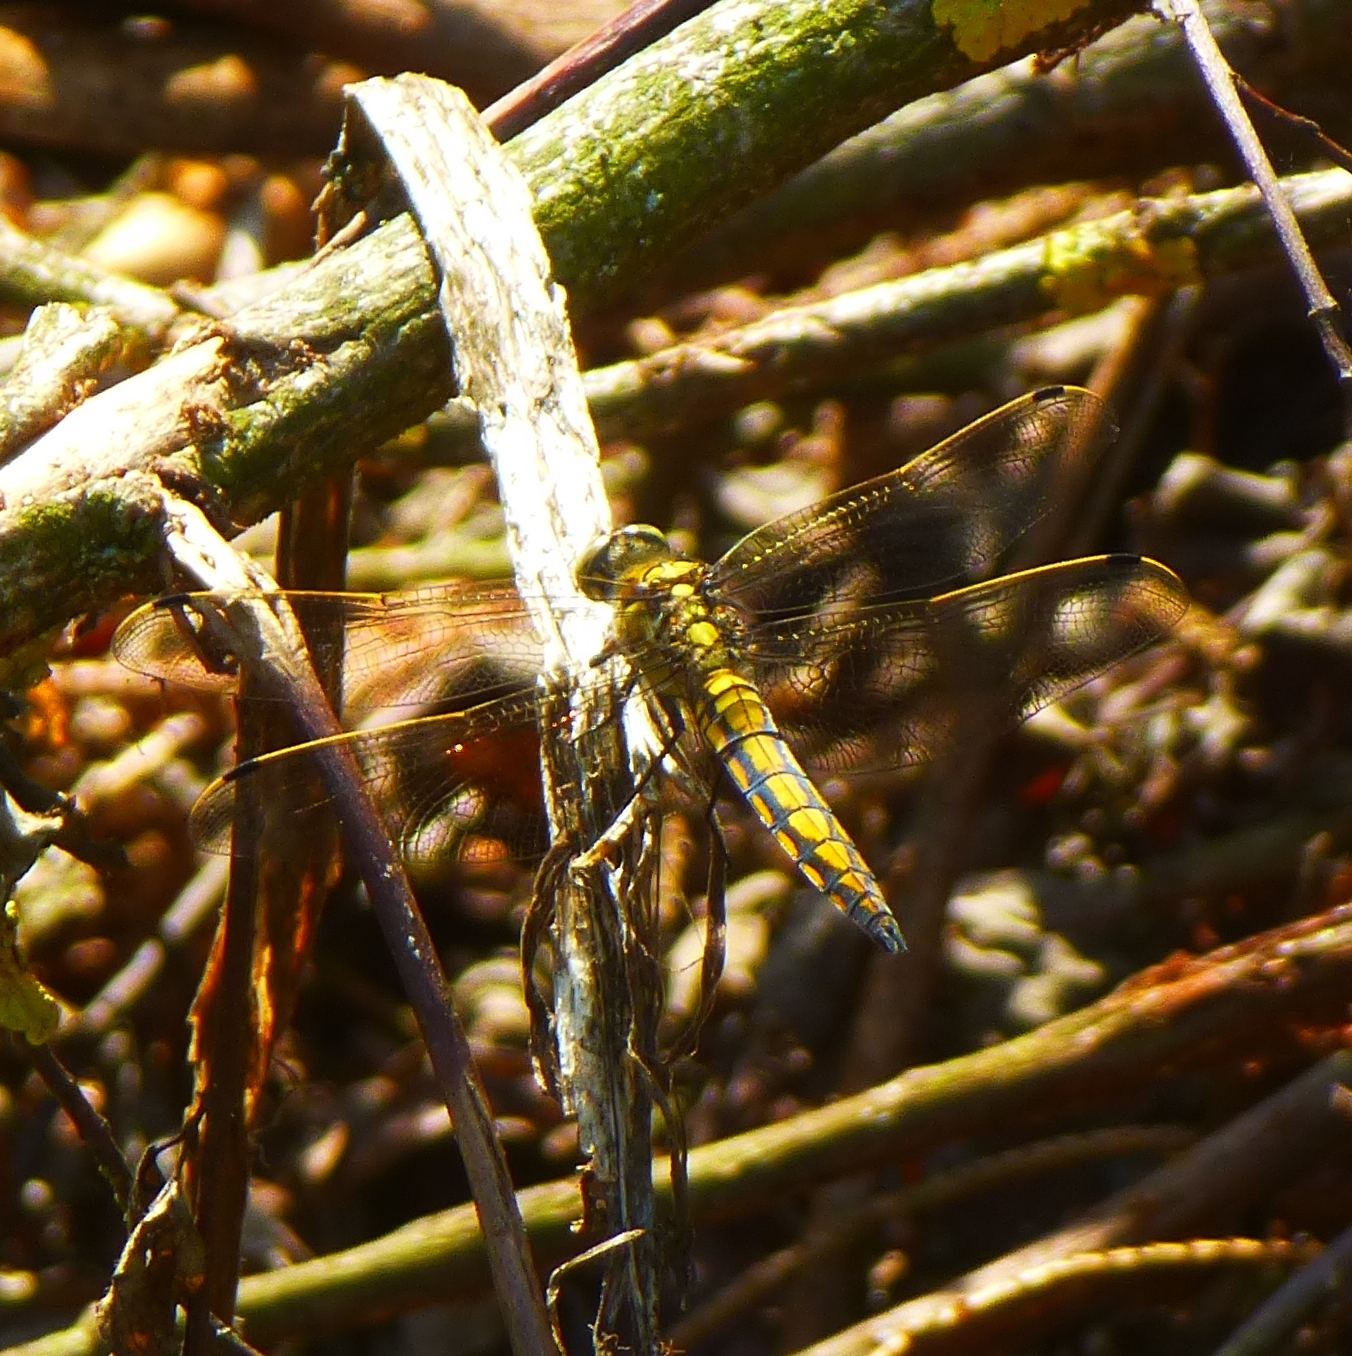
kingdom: Animalia
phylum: Arthropoda
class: Insecta
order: Odonata
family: Libellulidae
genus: Orthetrum
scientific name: Orthetrum cancellatum
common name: Black-tailed skimmer
